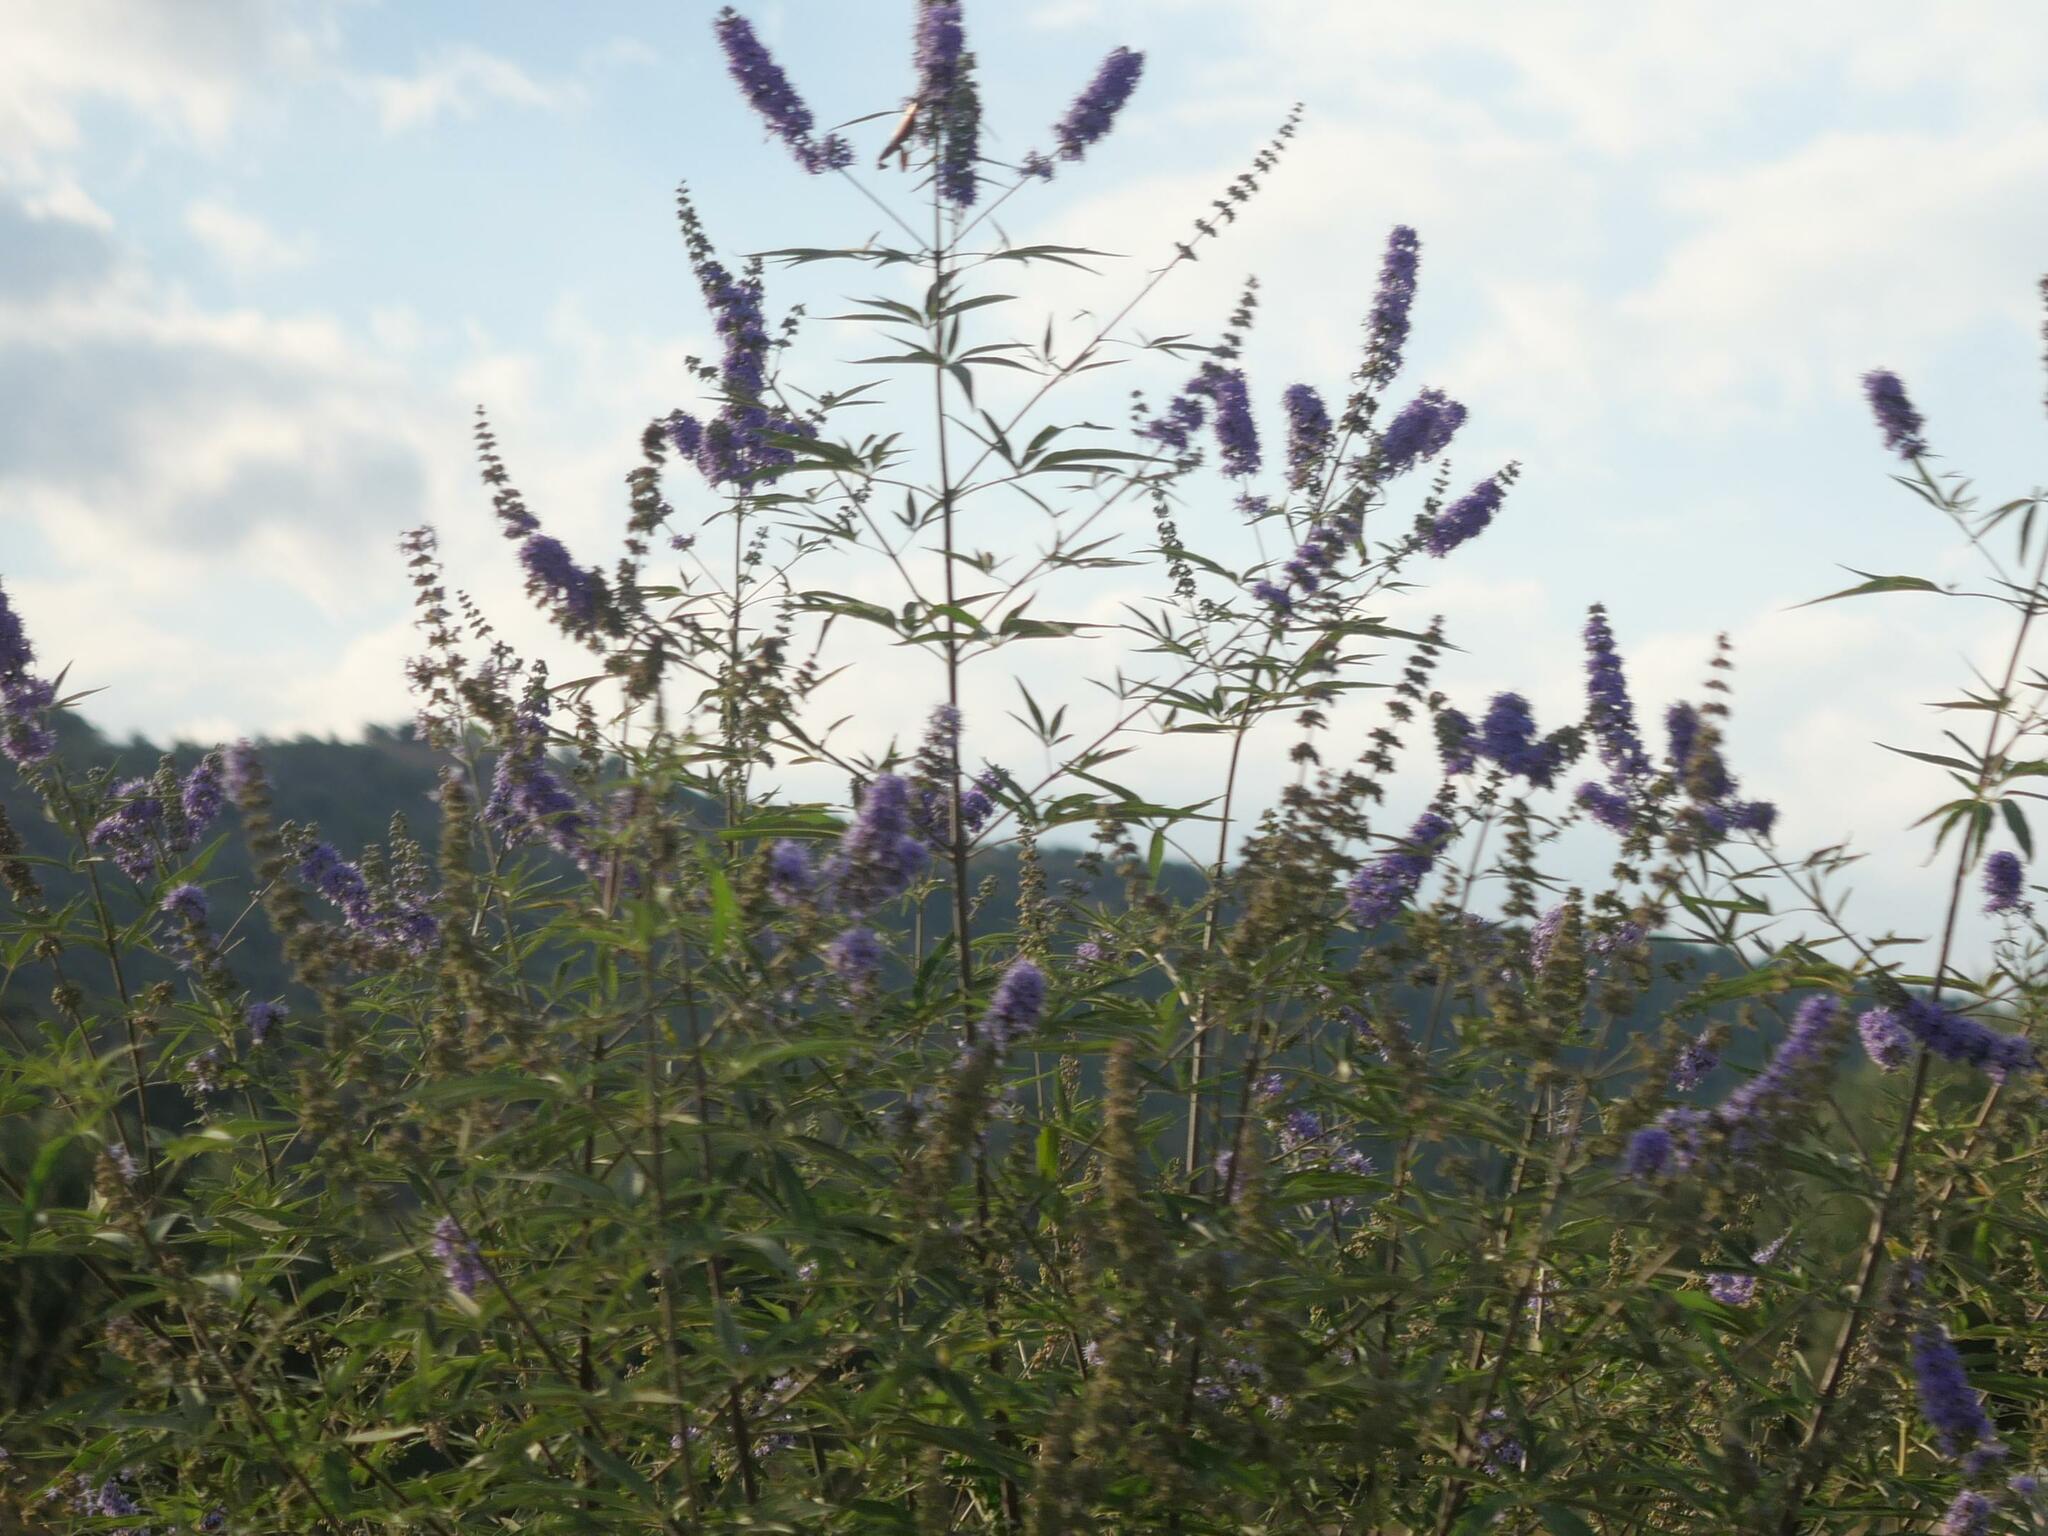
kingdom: Plantae
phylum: Tracheophyta
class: Magnoliopsida
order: Lamiales
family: Lamiaceae
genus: Vitex
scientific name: Vitex agnus-castus
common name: Chasteberry
